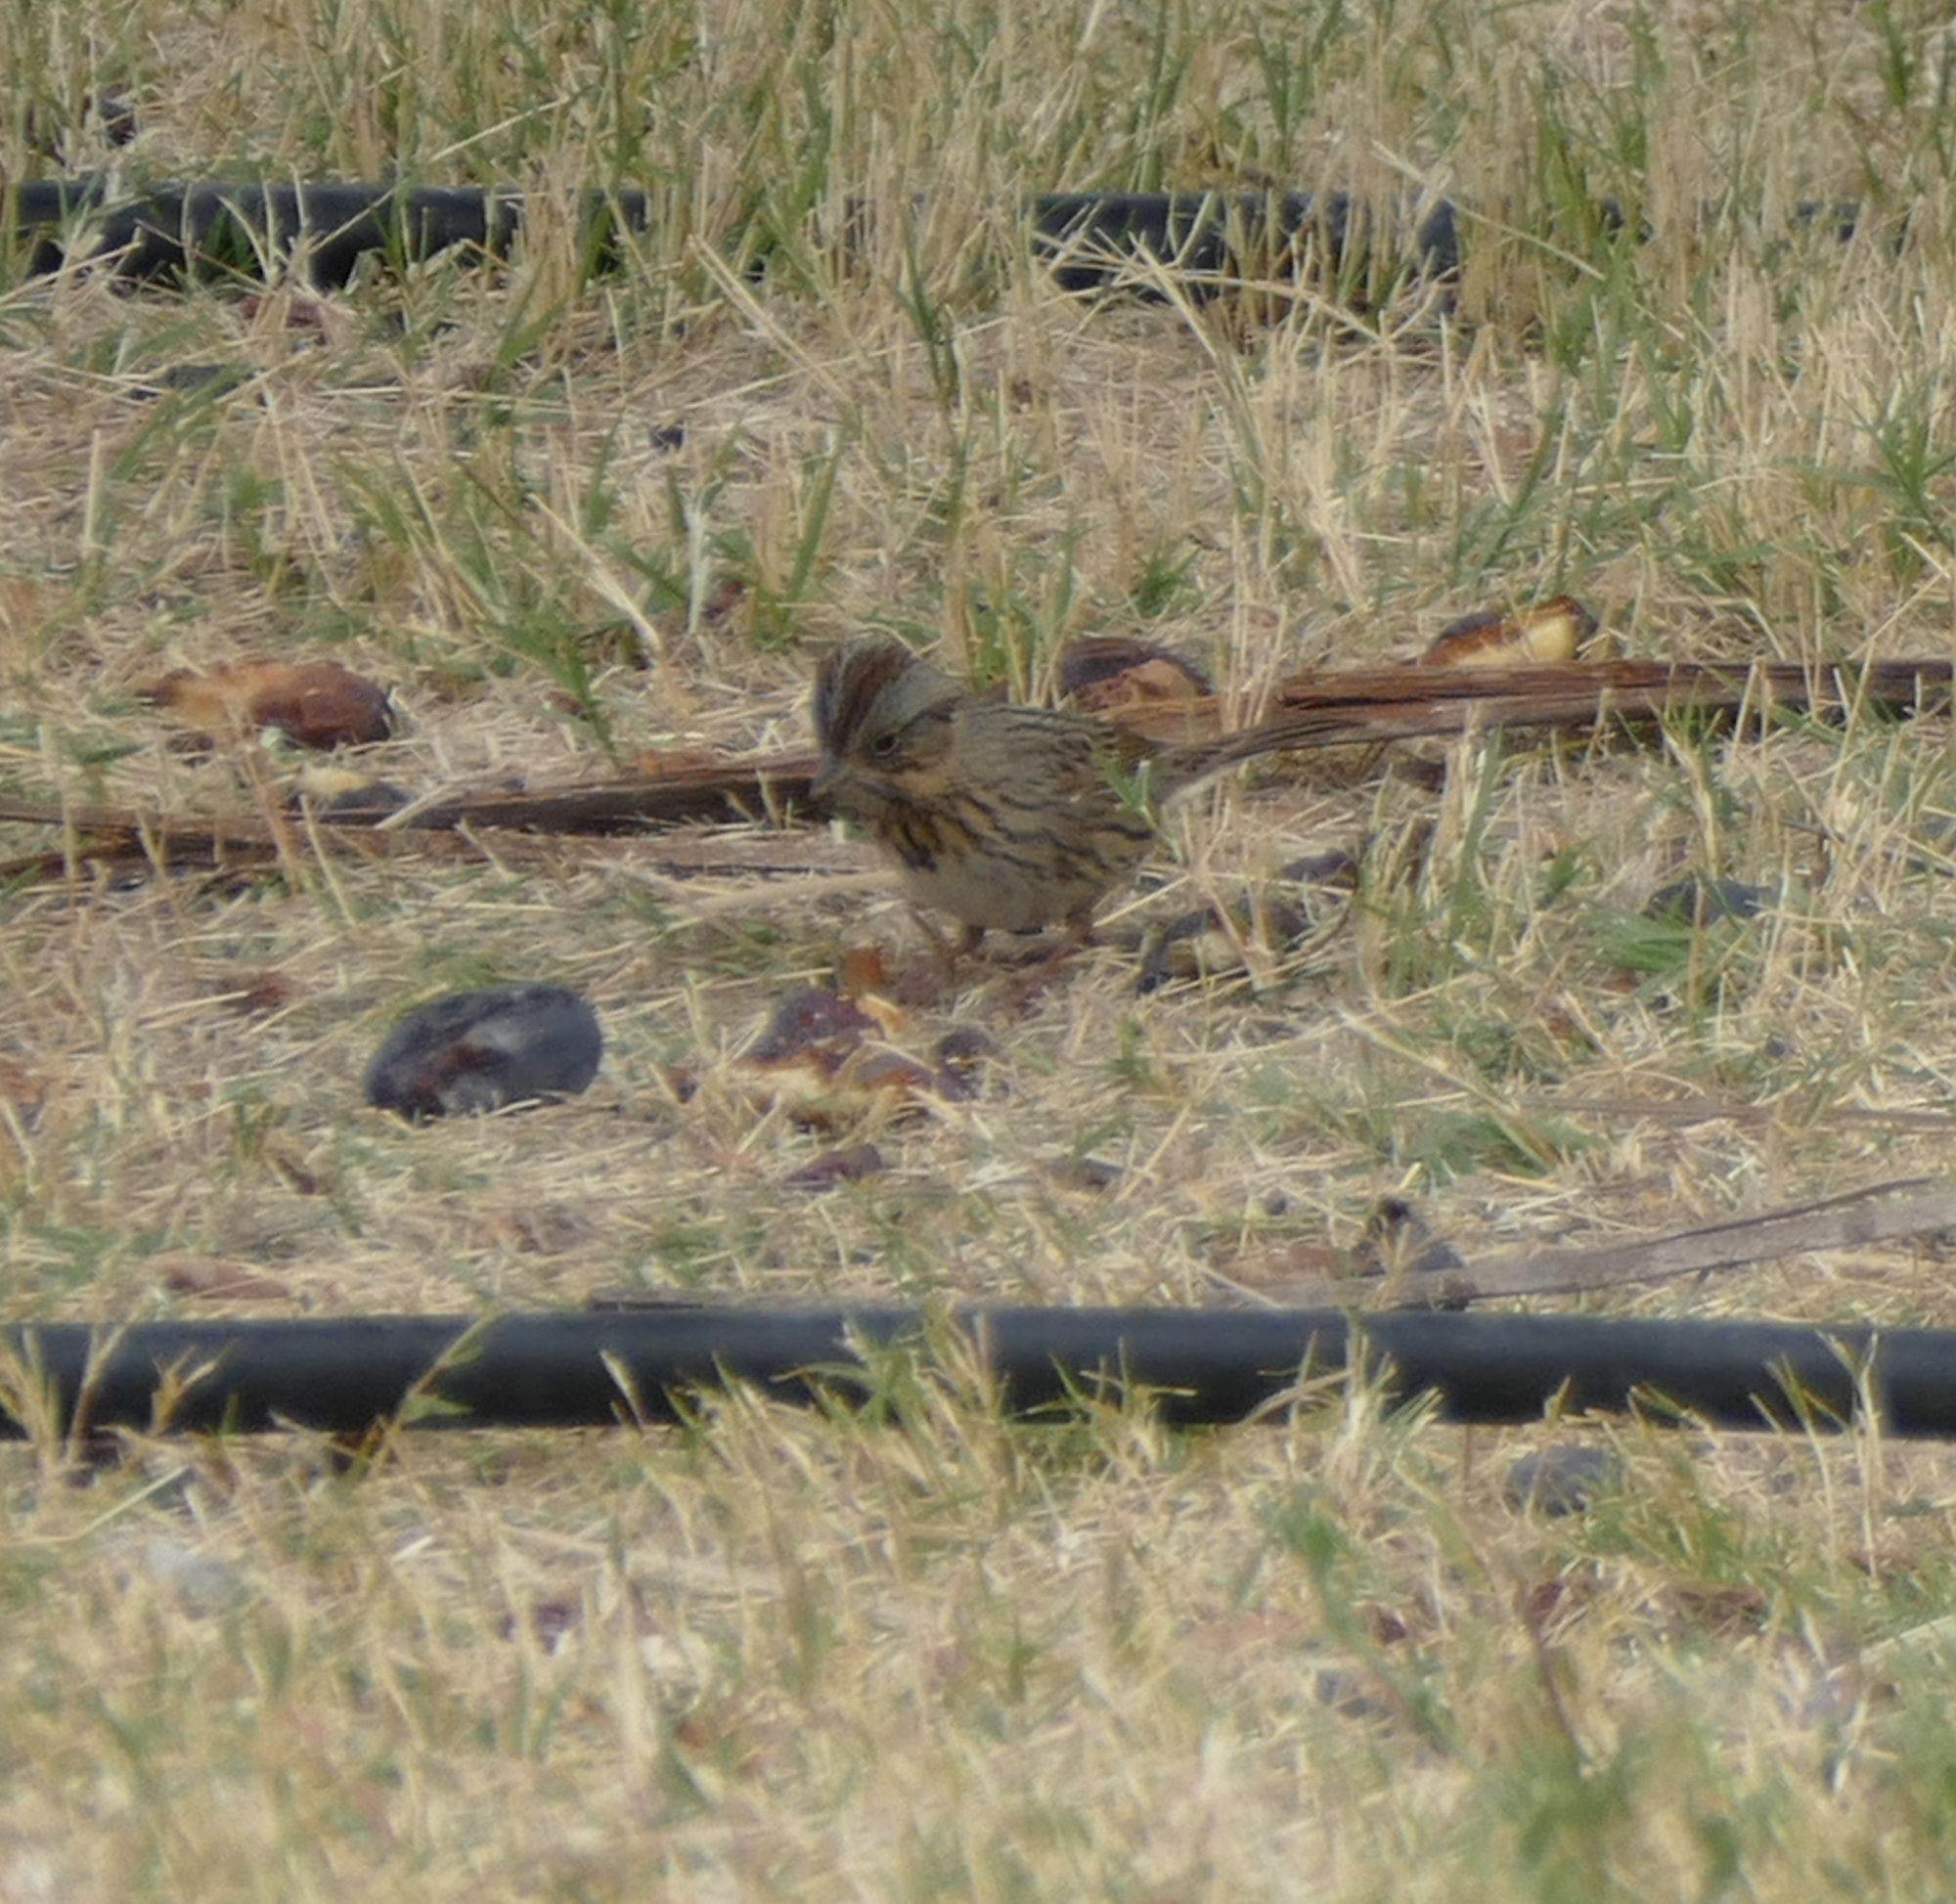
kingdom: Animalia
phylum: Chordata
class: Aves
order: Passeriformes
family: Passerellidae
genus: Melospiza
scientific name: Melospiza lincolnii
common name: Lincoln's sparrow
